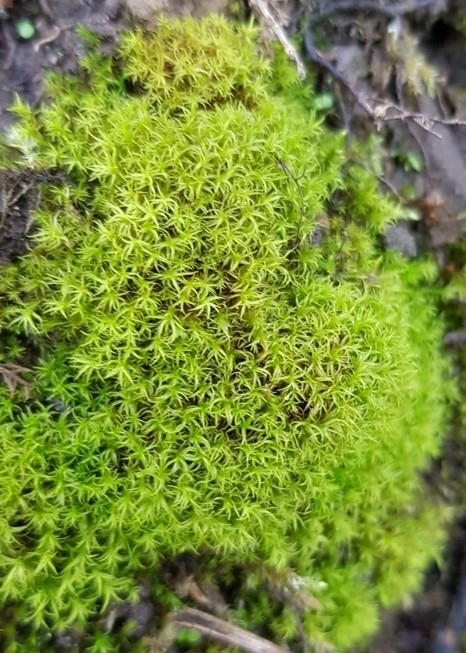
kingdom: Plantae
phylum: Bryophyta
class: Bryopsida
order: Pottiales
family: Pottiaceae
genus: Bryoerythrophyllum
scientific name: Bryoerythrophyllum recurvirostrum
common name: Red beard moss
